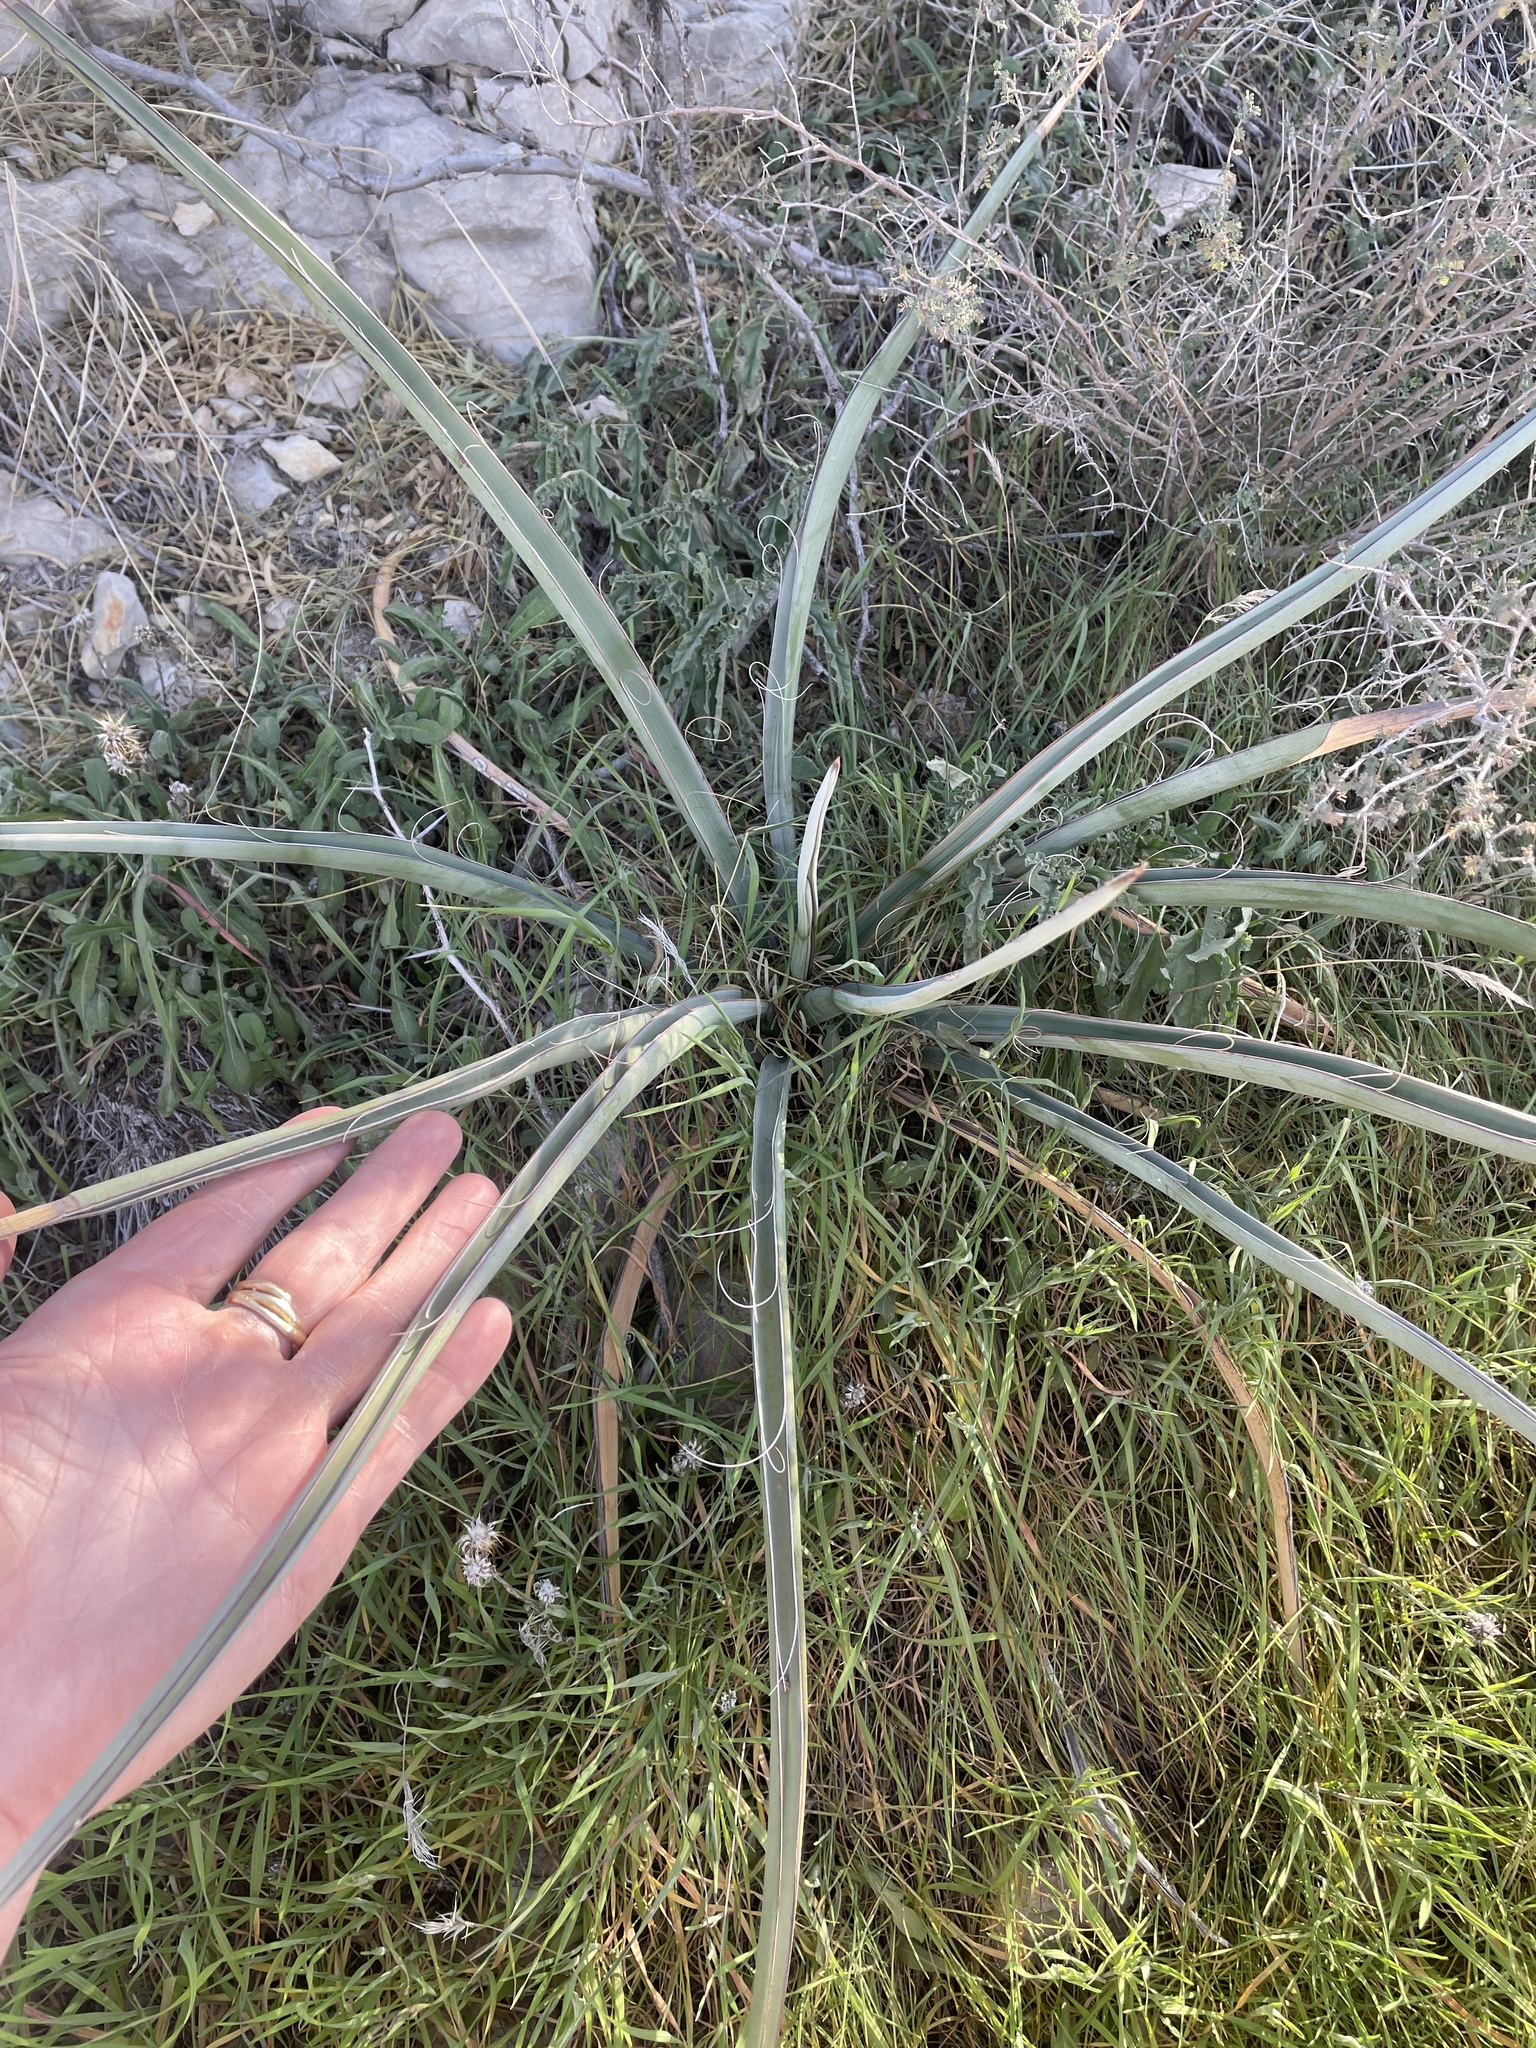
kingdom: Plantae
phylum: Tracheophyta
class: Liliopsida
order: Asparagales
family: Asparagaceae
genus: Yucca
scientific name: Yucca treculiana
